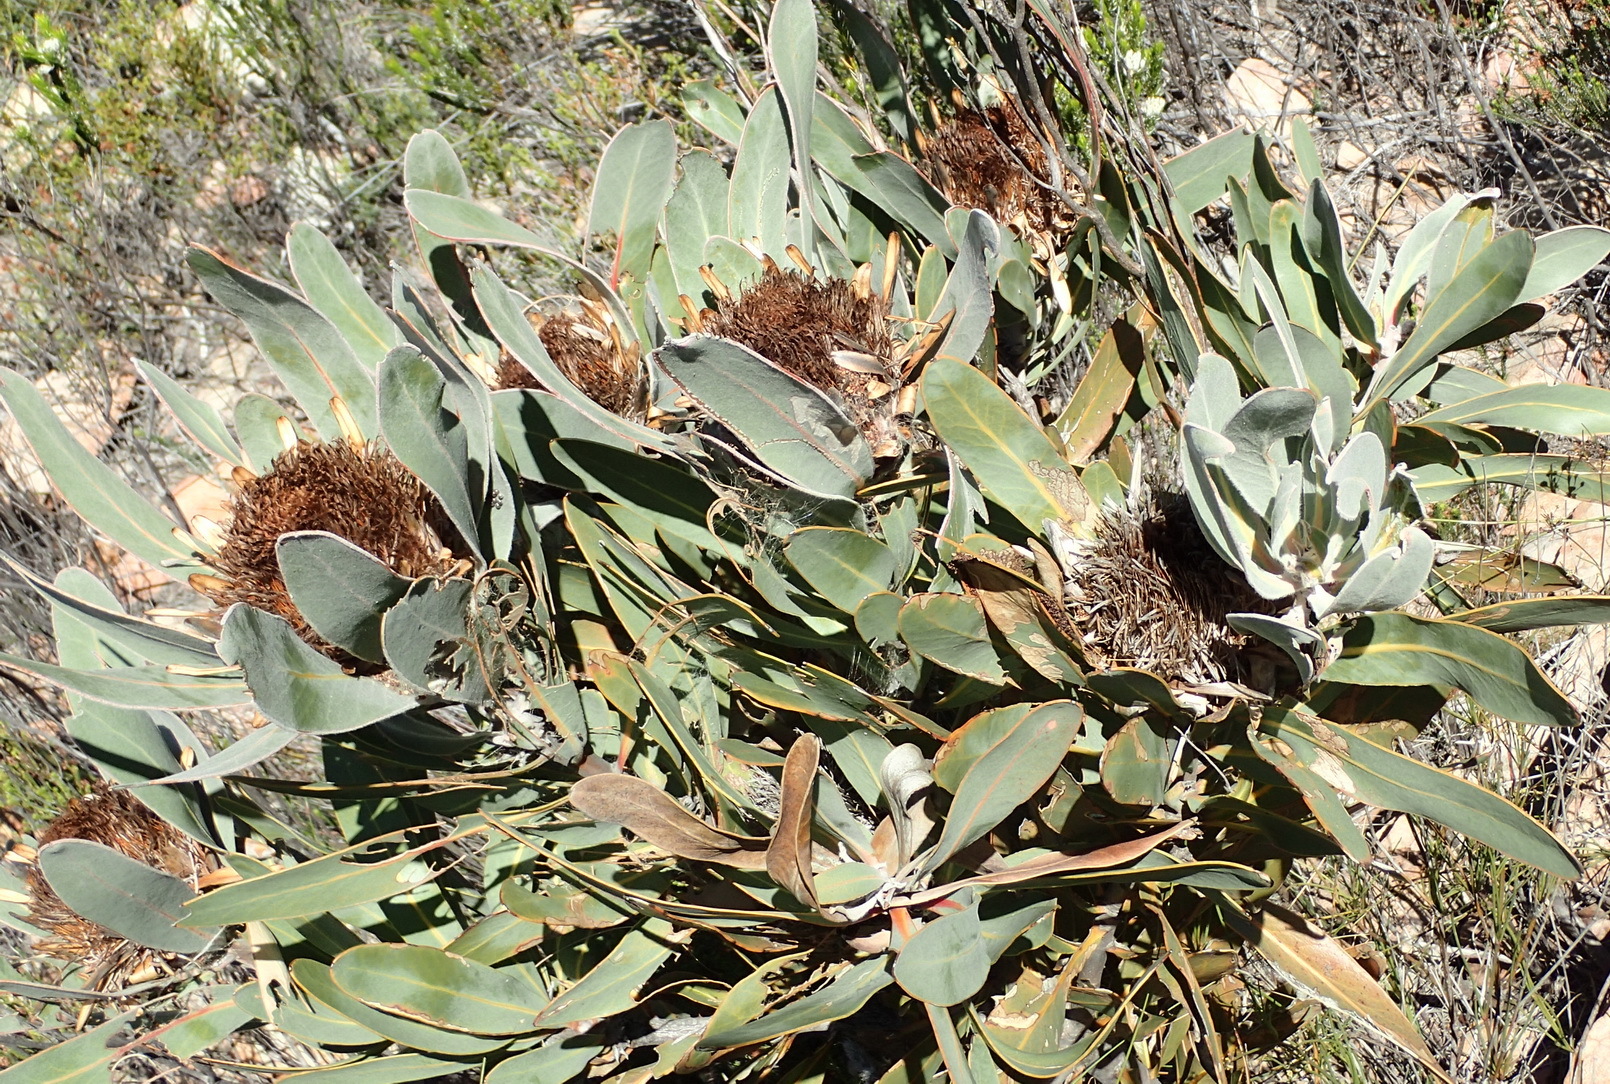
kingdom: Plantae
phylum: Tracheophyta
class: Magnoliopsida
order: Proteales
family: Proteaceae
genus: Protea
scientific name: Protea lorifolia
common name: Strap-leaved protea
